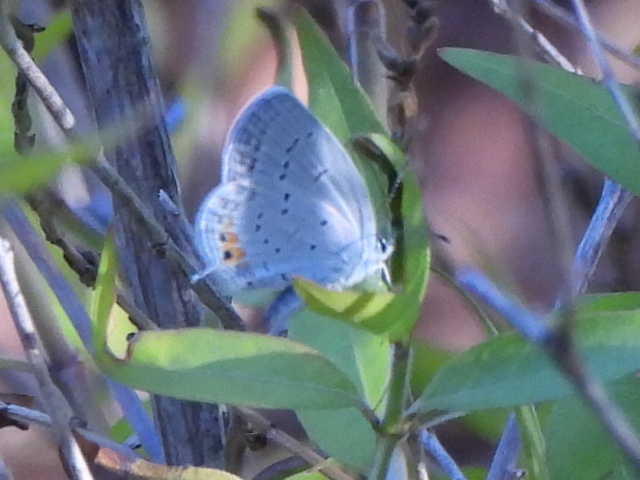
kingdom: Animalia
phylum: Arthropoda
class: Insecta
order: Lepidoptera
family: Lycaenidae
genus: Elkalyce
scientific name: Elkalyce comyntas
